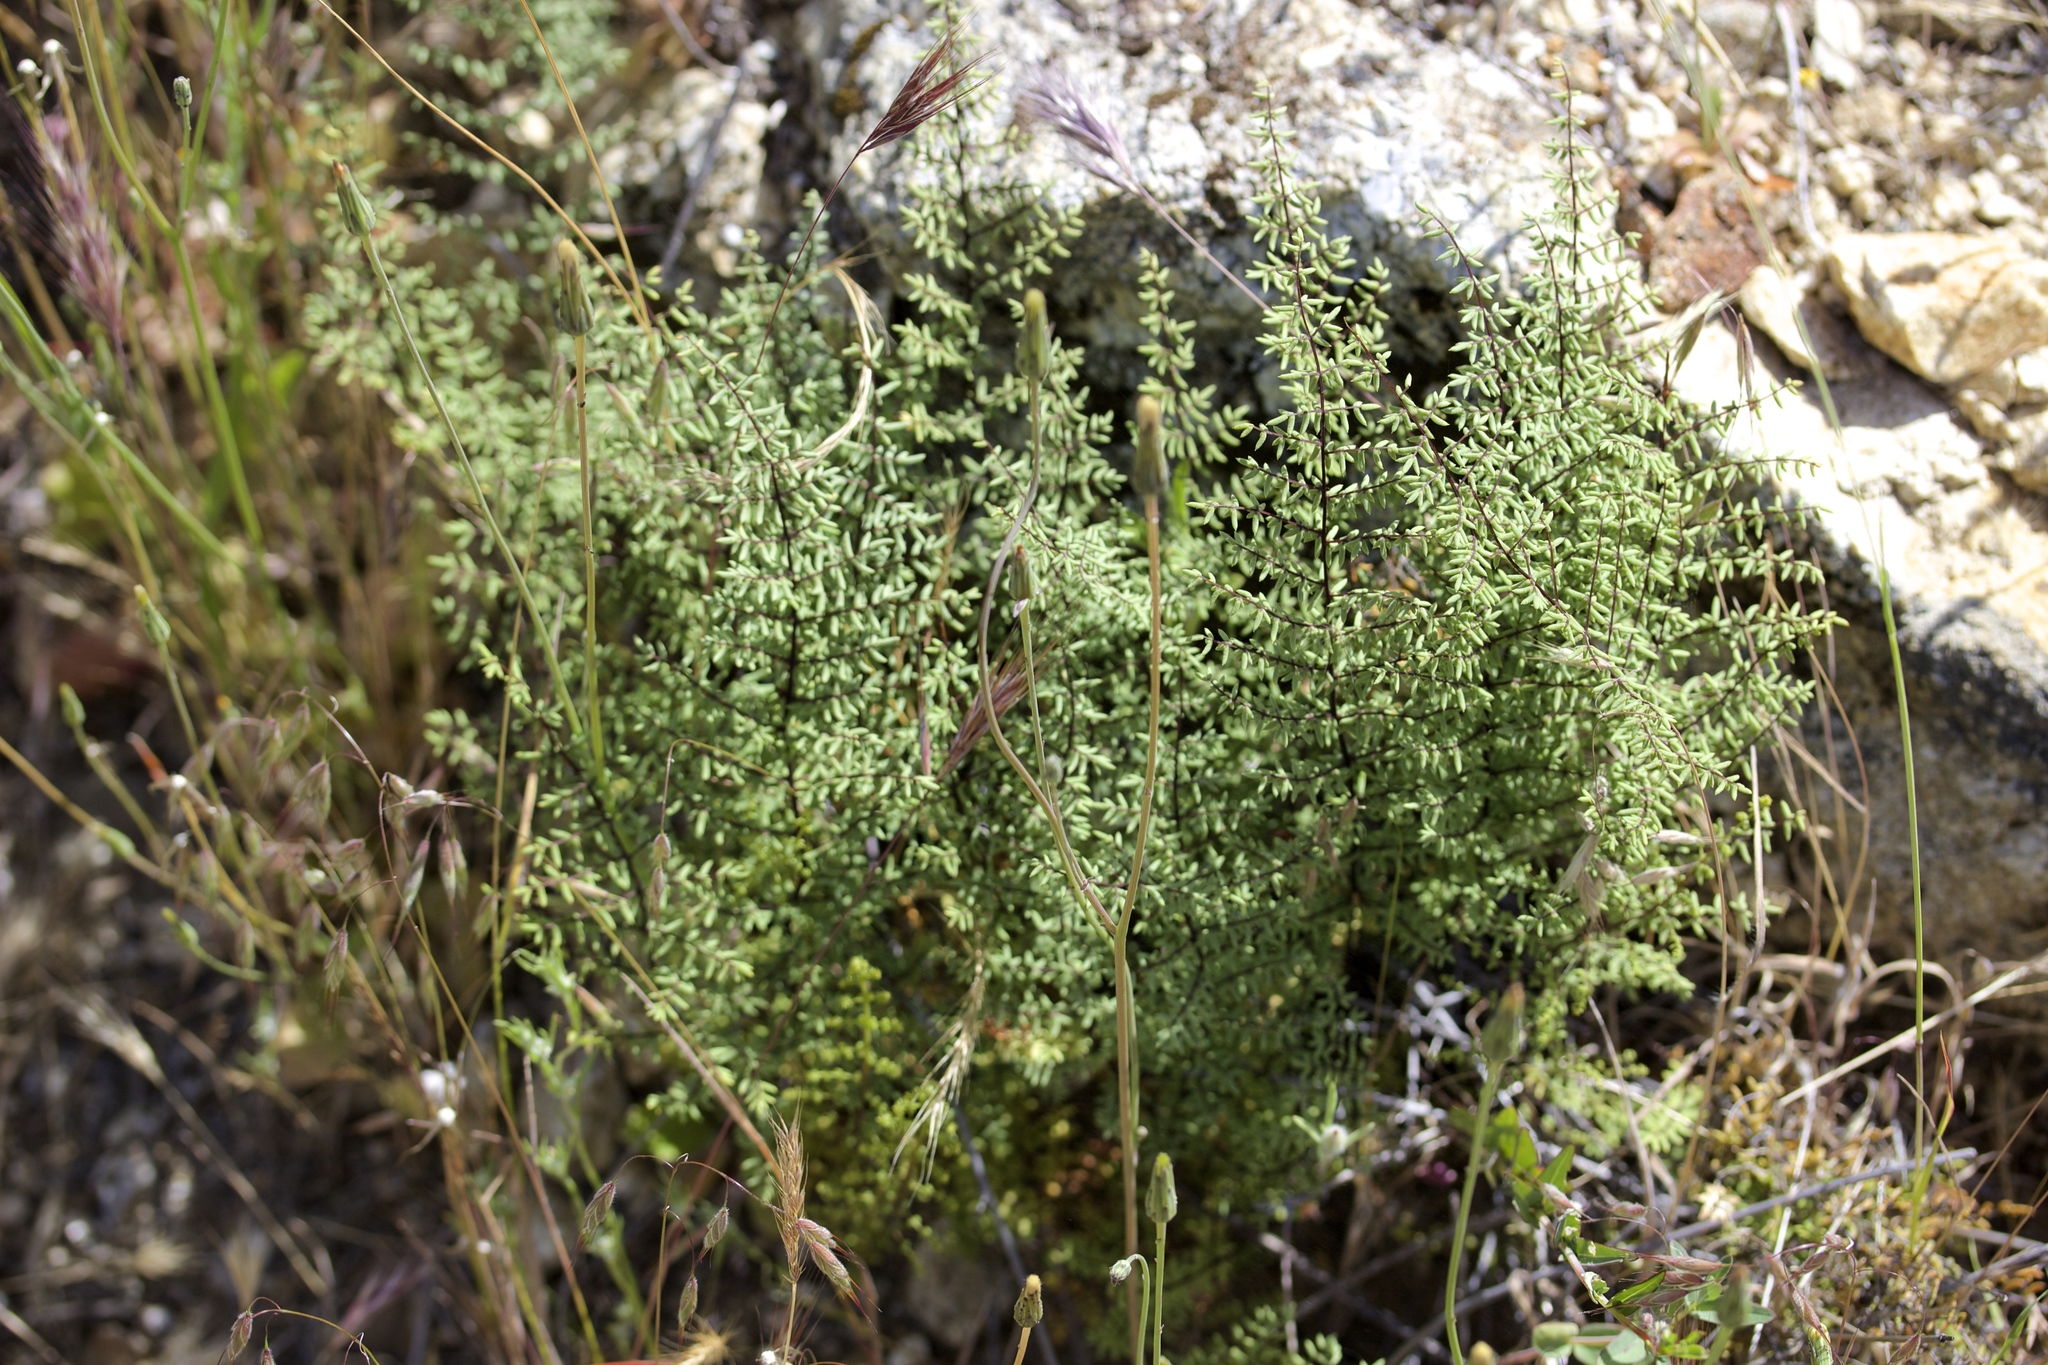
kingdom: Plantae
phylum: Tracheophyta
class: Polypodiopsida
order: Polypodiales
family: Pteridaceae
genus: Pellaea
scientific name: Pellaea mucronata
